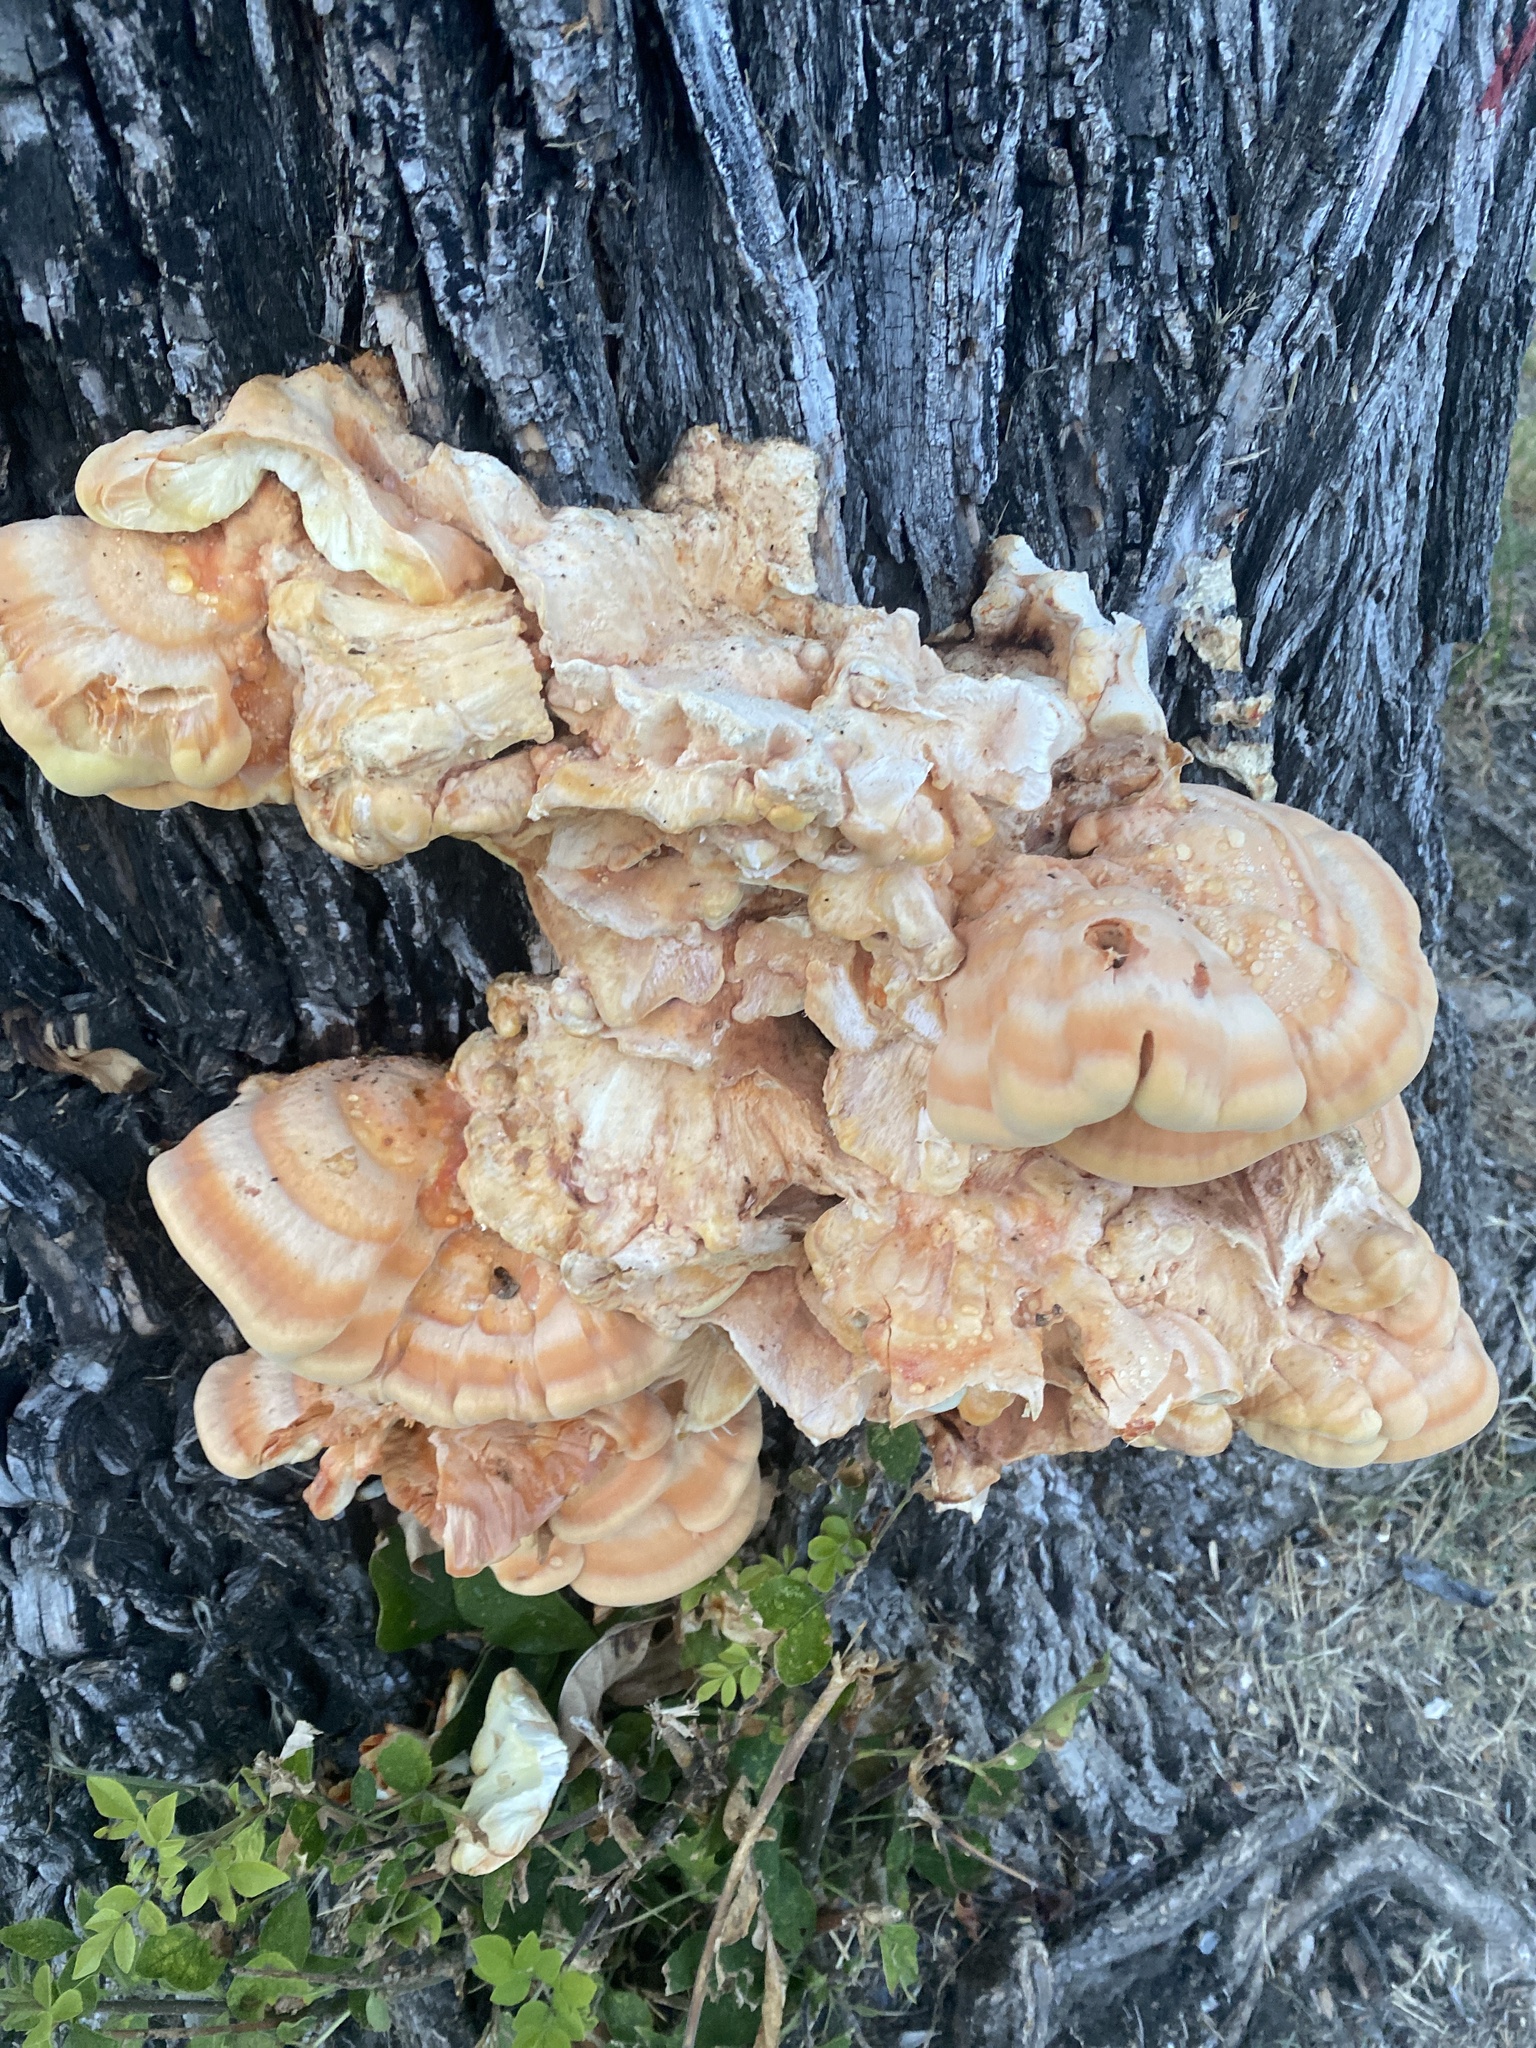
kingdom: Fungi
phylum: Basidiomycota
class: Agaricomycetes
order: Polyporales
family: Laetiporaceae
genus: Laetiporus
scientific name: Laetiporus gilbertsonii
